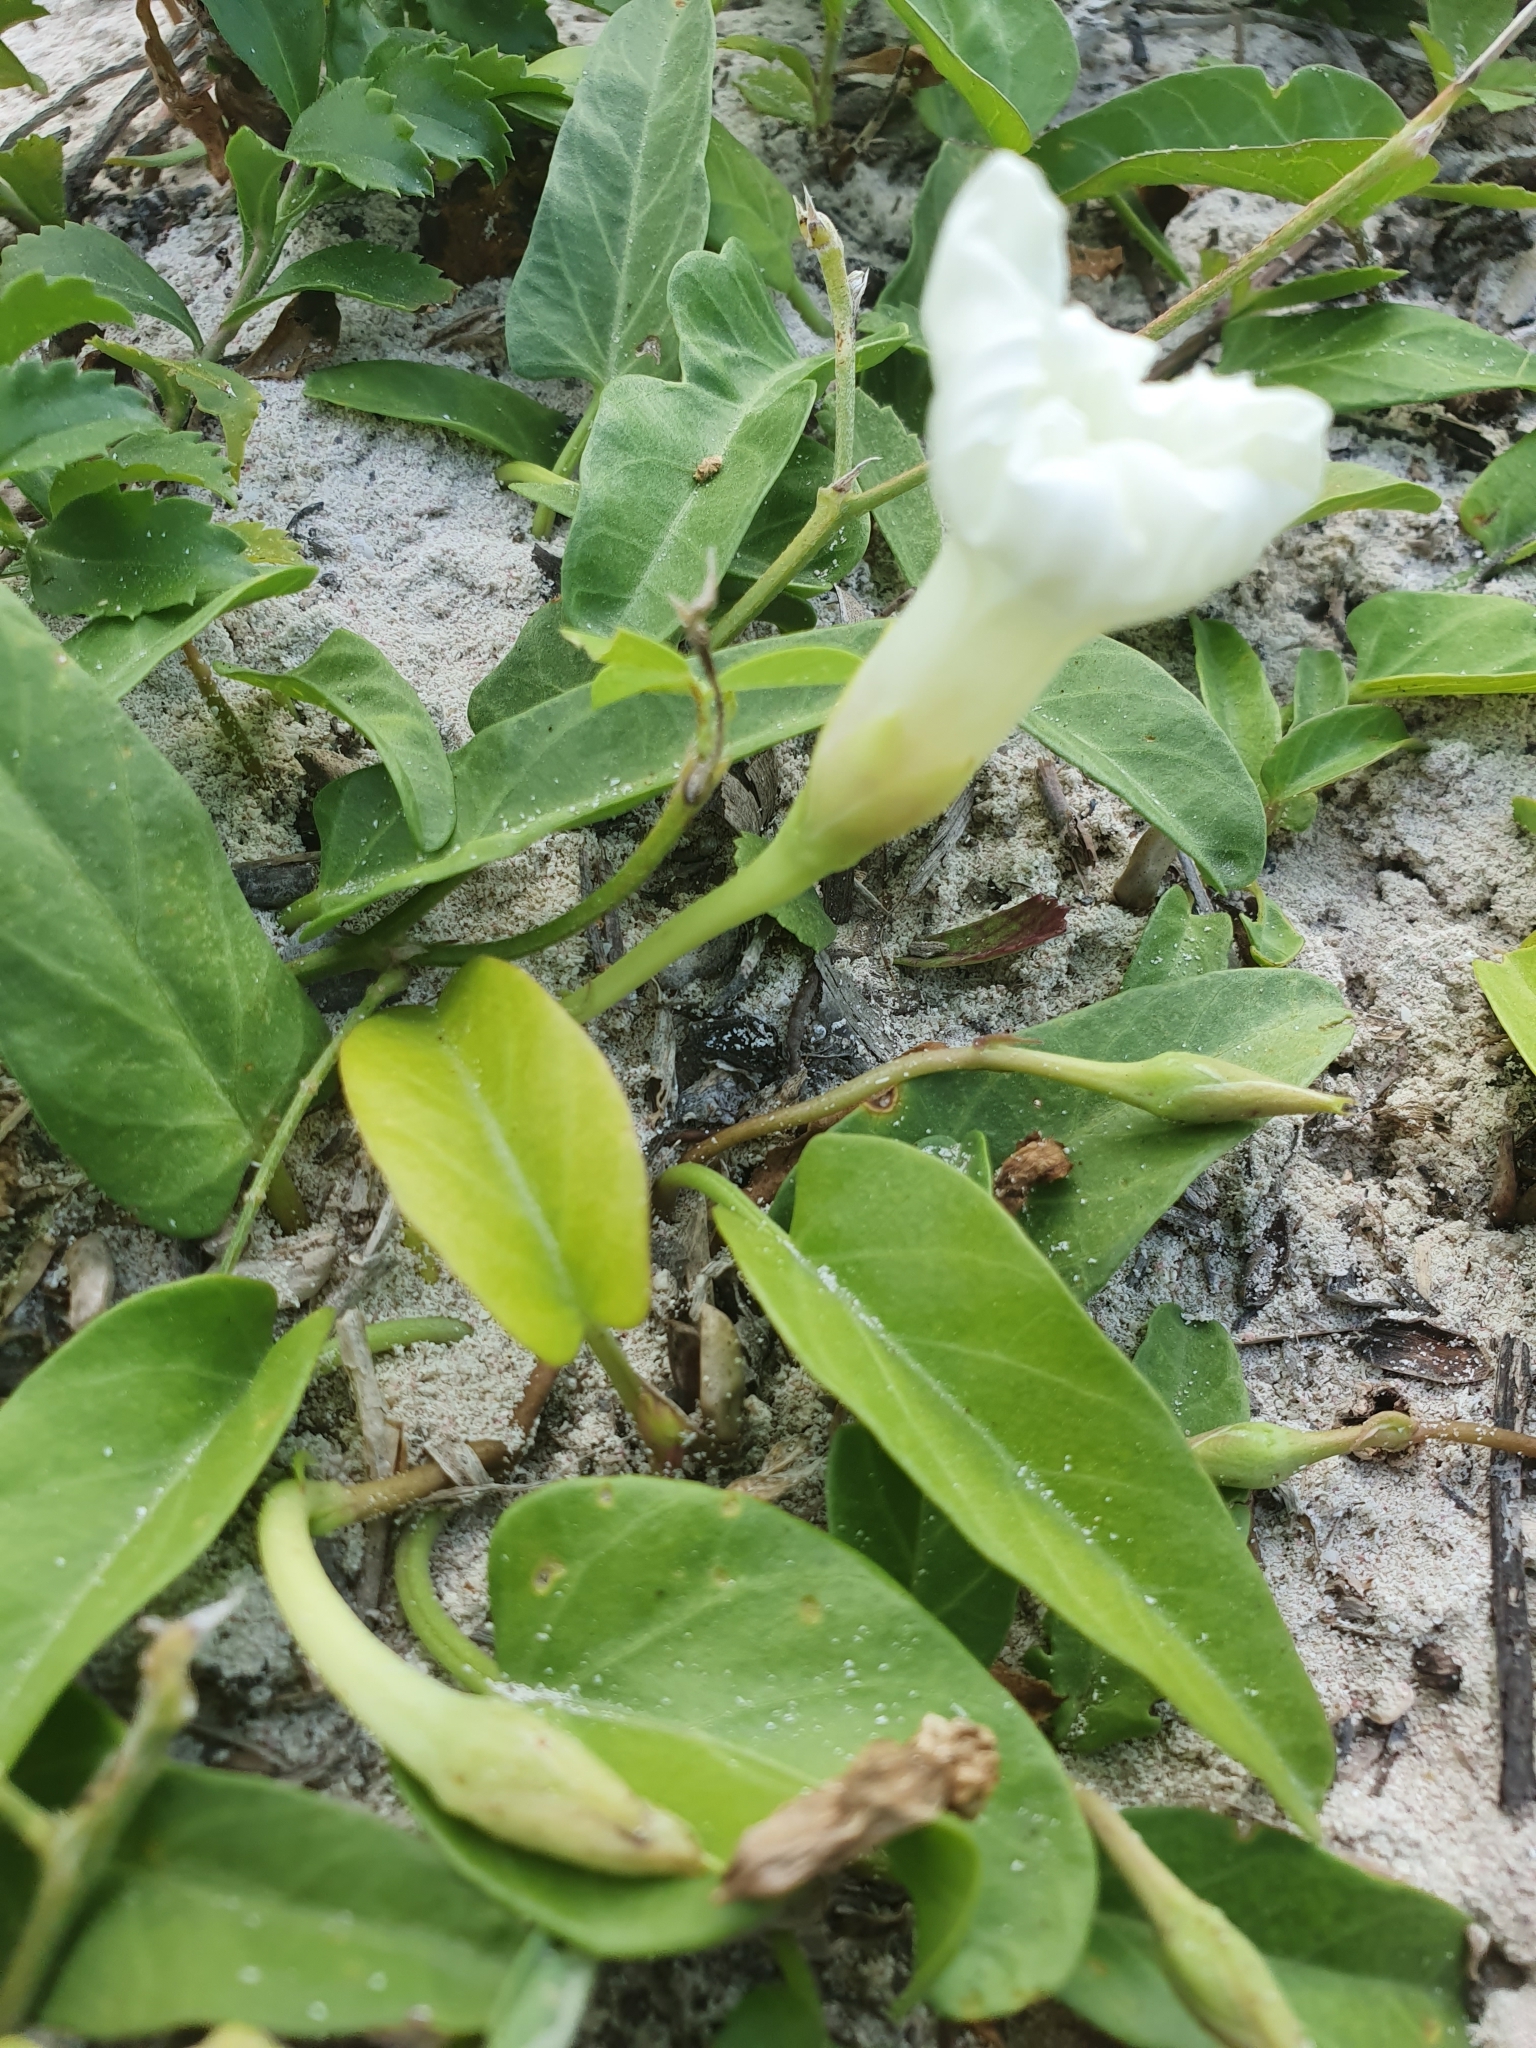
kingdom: Plantae
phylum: Tracheophyta
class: Magnoliopsida
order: Solanales
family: Convolvulaceae
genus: Ipomoea
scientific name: Ipomoea imperati
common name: Fiddle-leaf morning-glory
